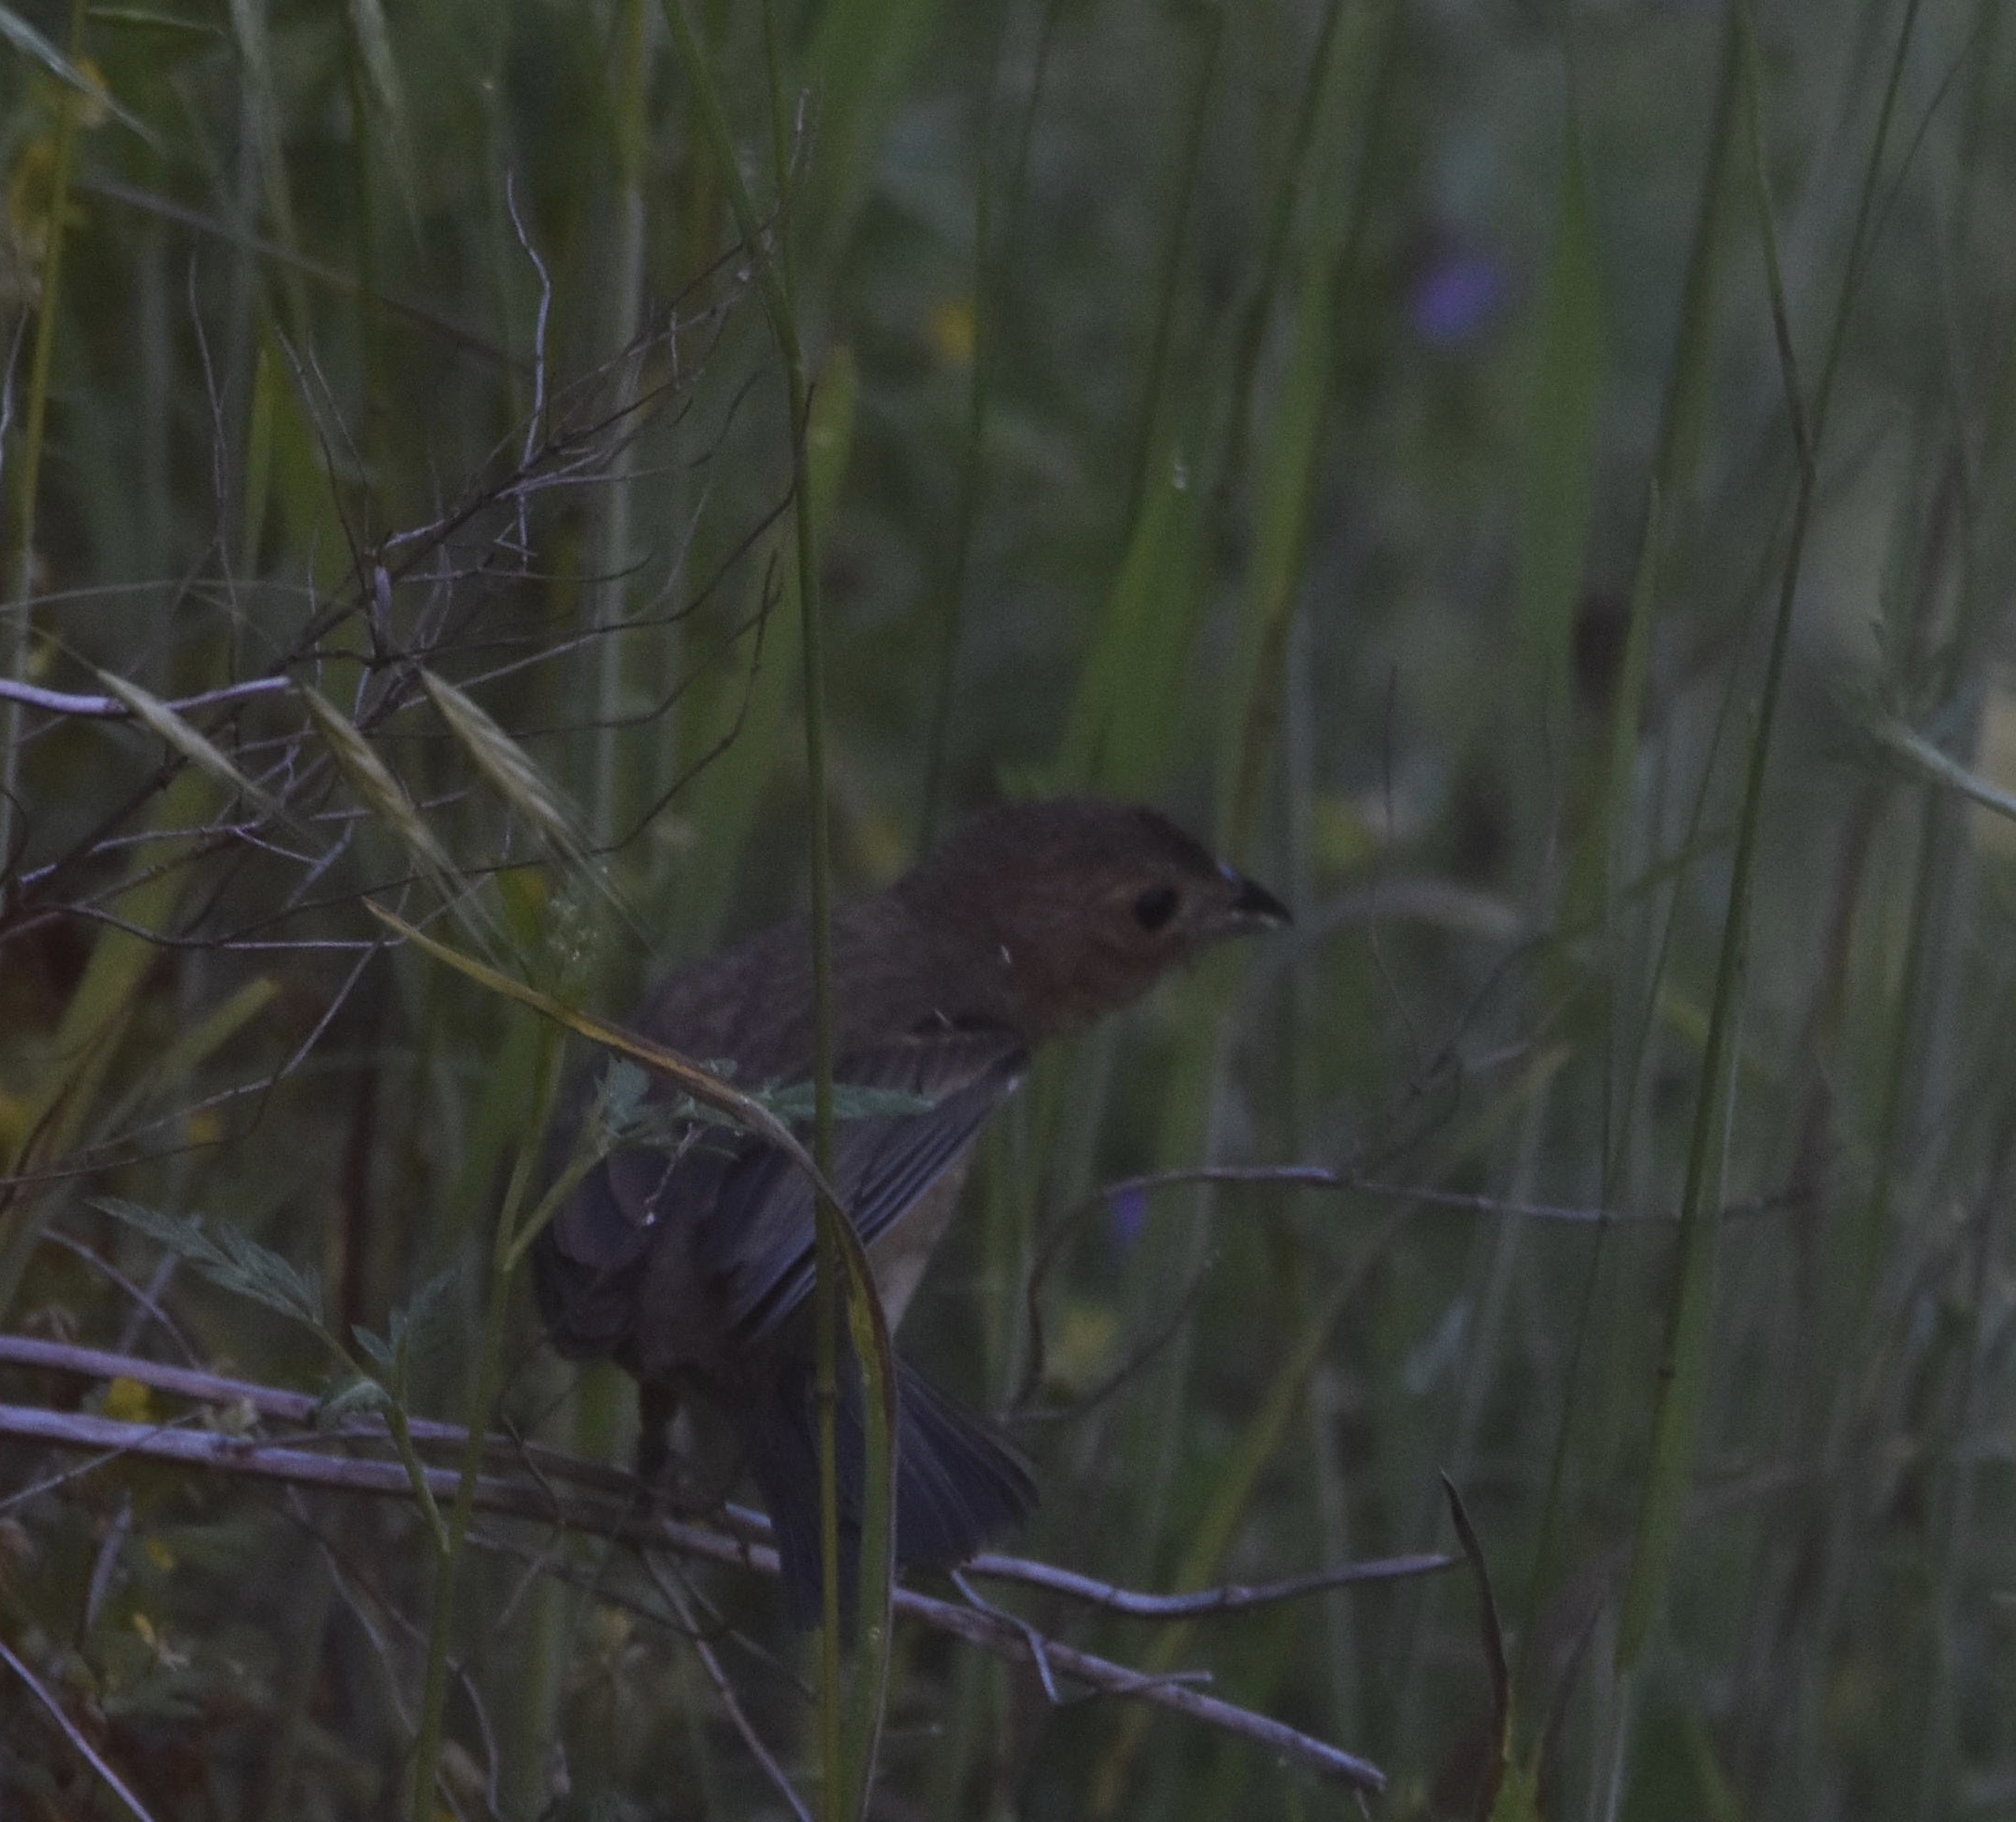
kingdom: Animalia
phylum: Chordata
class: Aves
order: Passeriformes
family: Cardinalidae
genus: Passerina
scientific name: Passerina cyanea
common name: Indigo bunting
